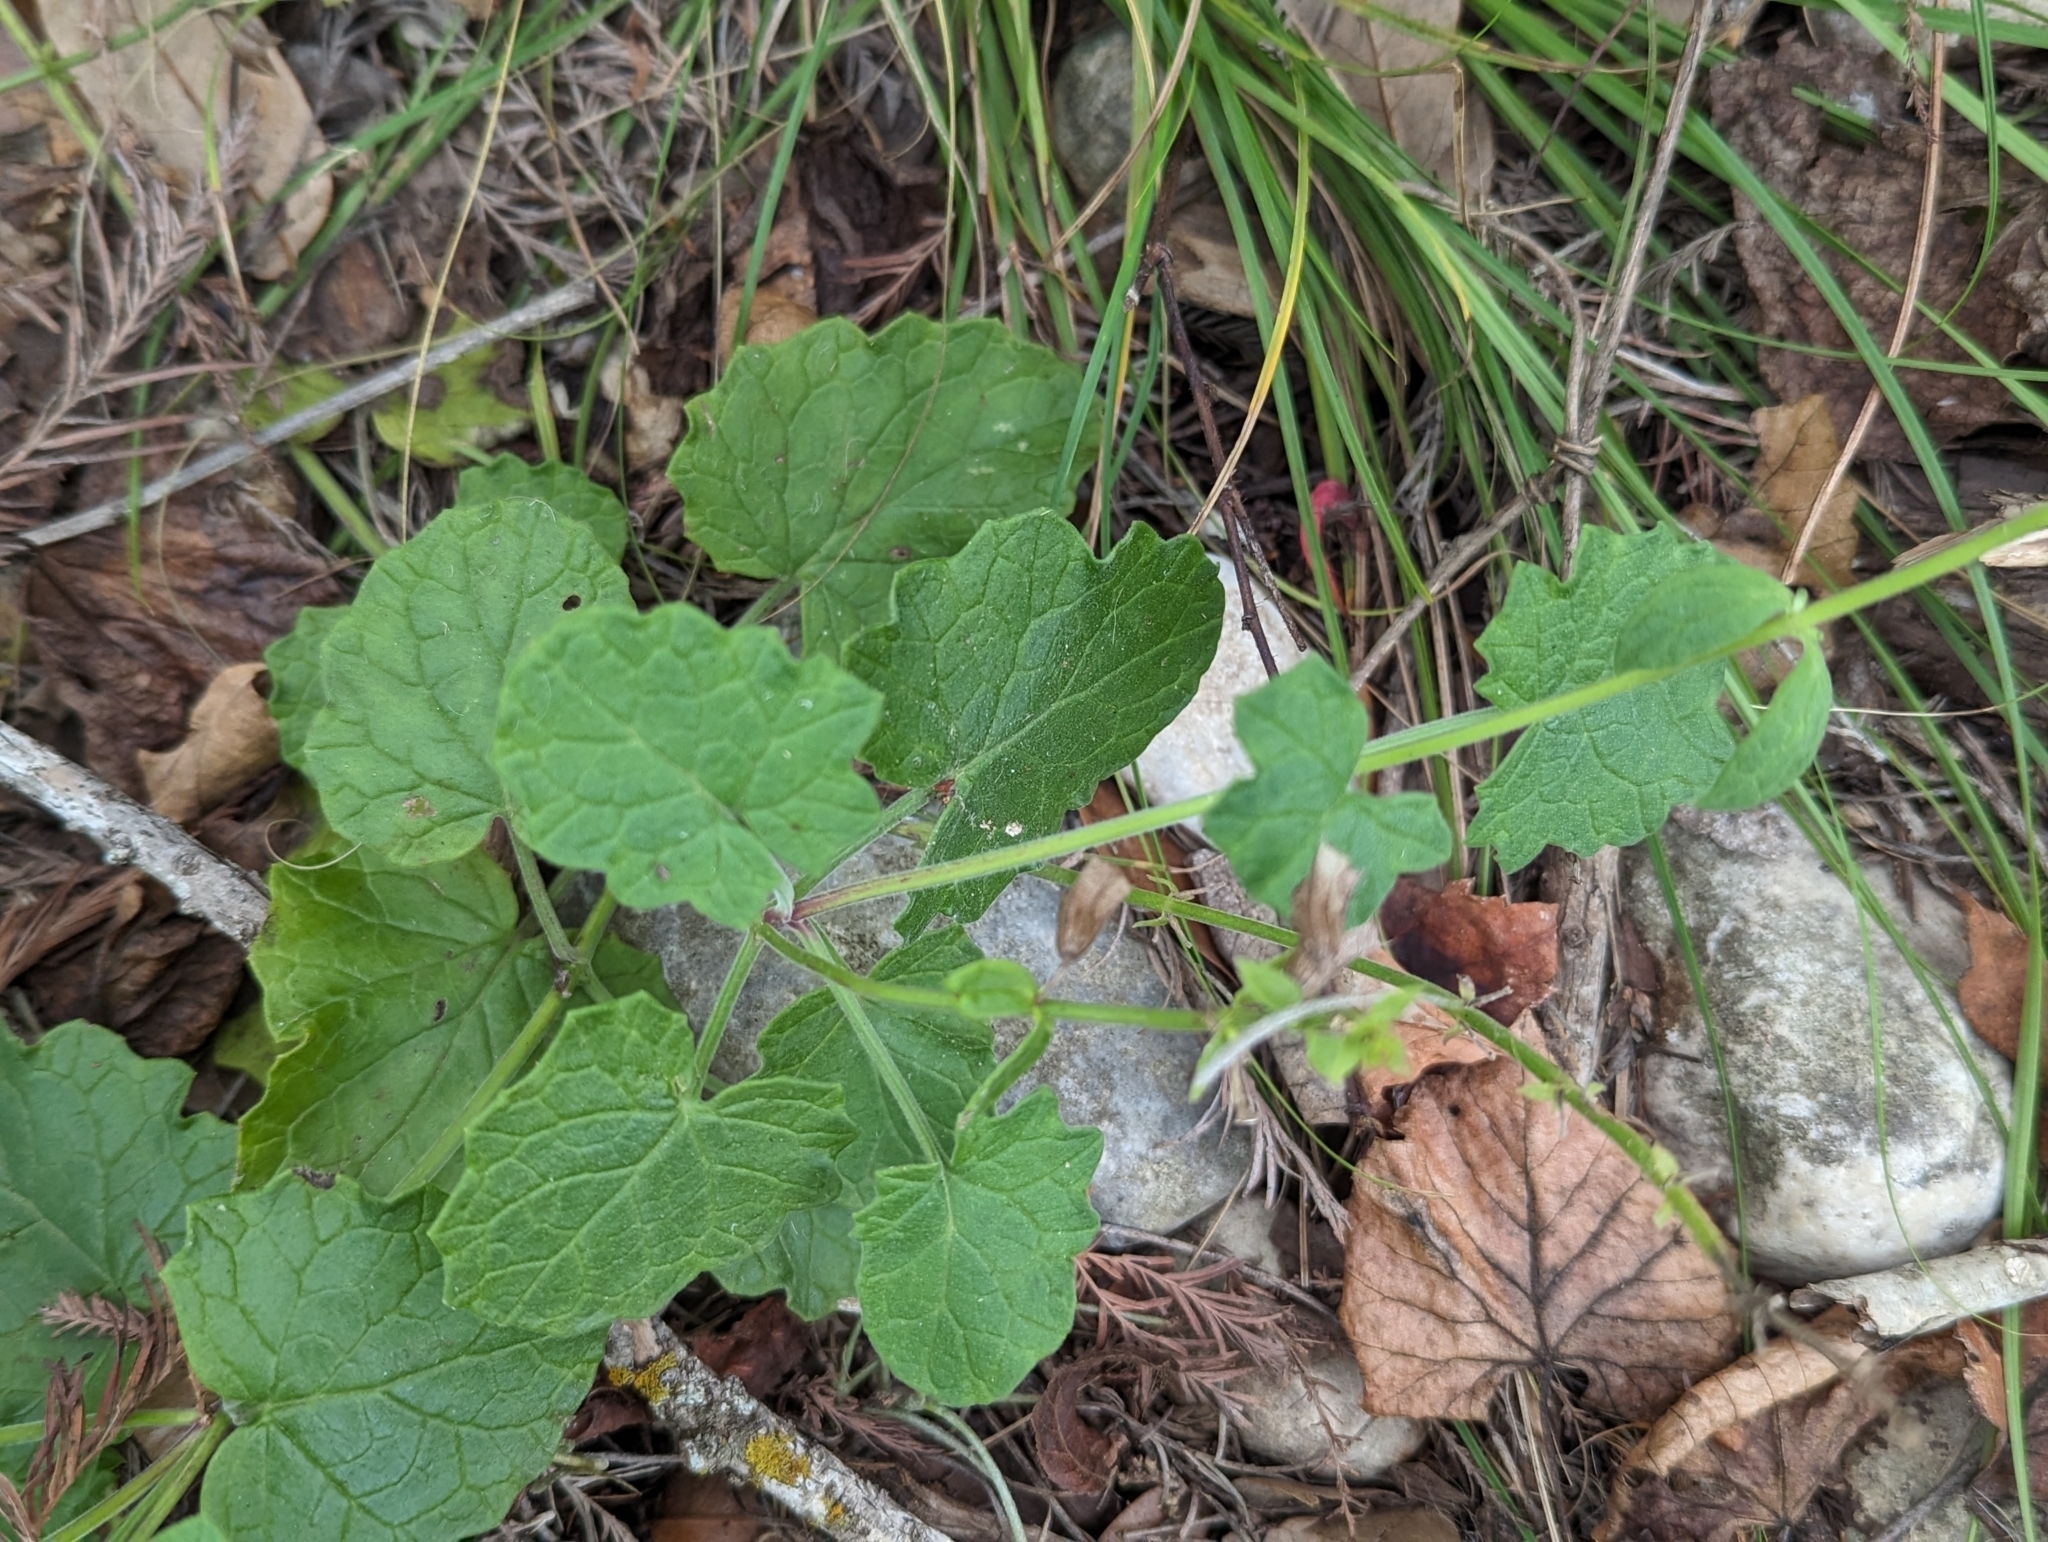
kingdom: Plantae
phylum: Tracheophyta
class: Magnoliopsida
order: Lamiales
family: Lamiaceae
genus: Salvia
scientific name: Salvia roemeriana
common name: Cedar sage
